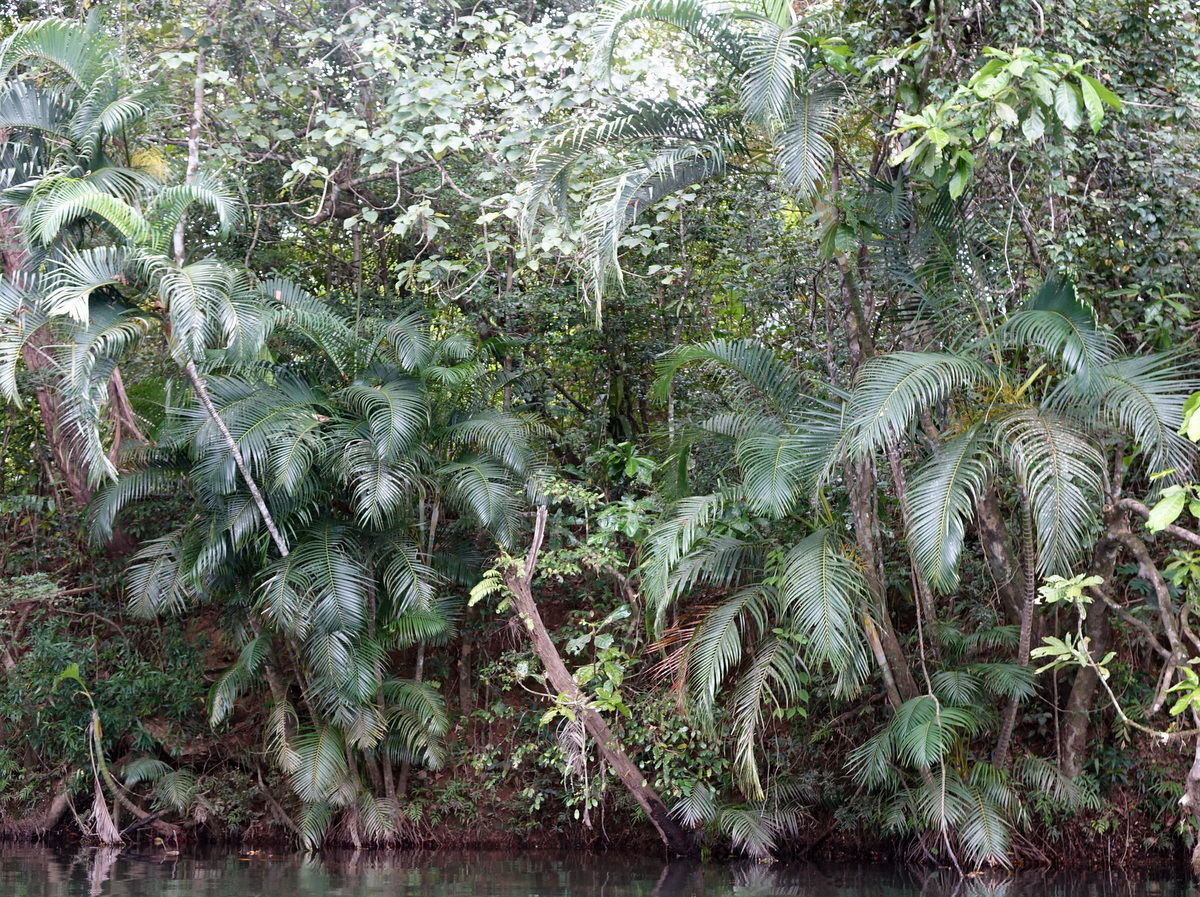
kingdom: Plantae
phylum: Tracheophyta
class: Liliopsida
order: Arecales
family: Arecaceae
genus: Dypsis
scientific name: Dypsis lutescens
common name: Yellow butterfly palm
